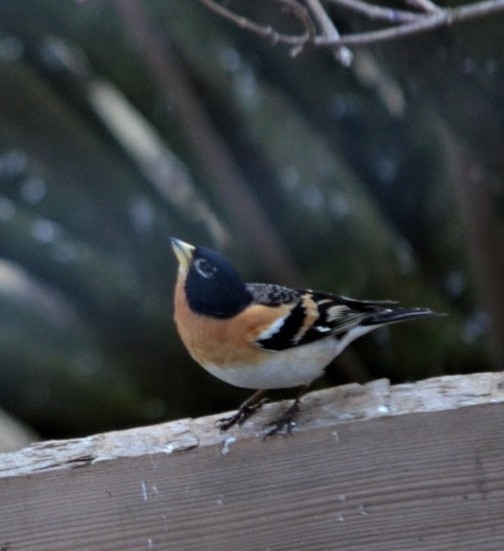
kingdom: Animalia
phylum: Chordata
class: Aves
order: Passeriformes
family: Fringillidae
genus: Fringilla
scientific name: Fringilla montifringilla
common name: Brambling
